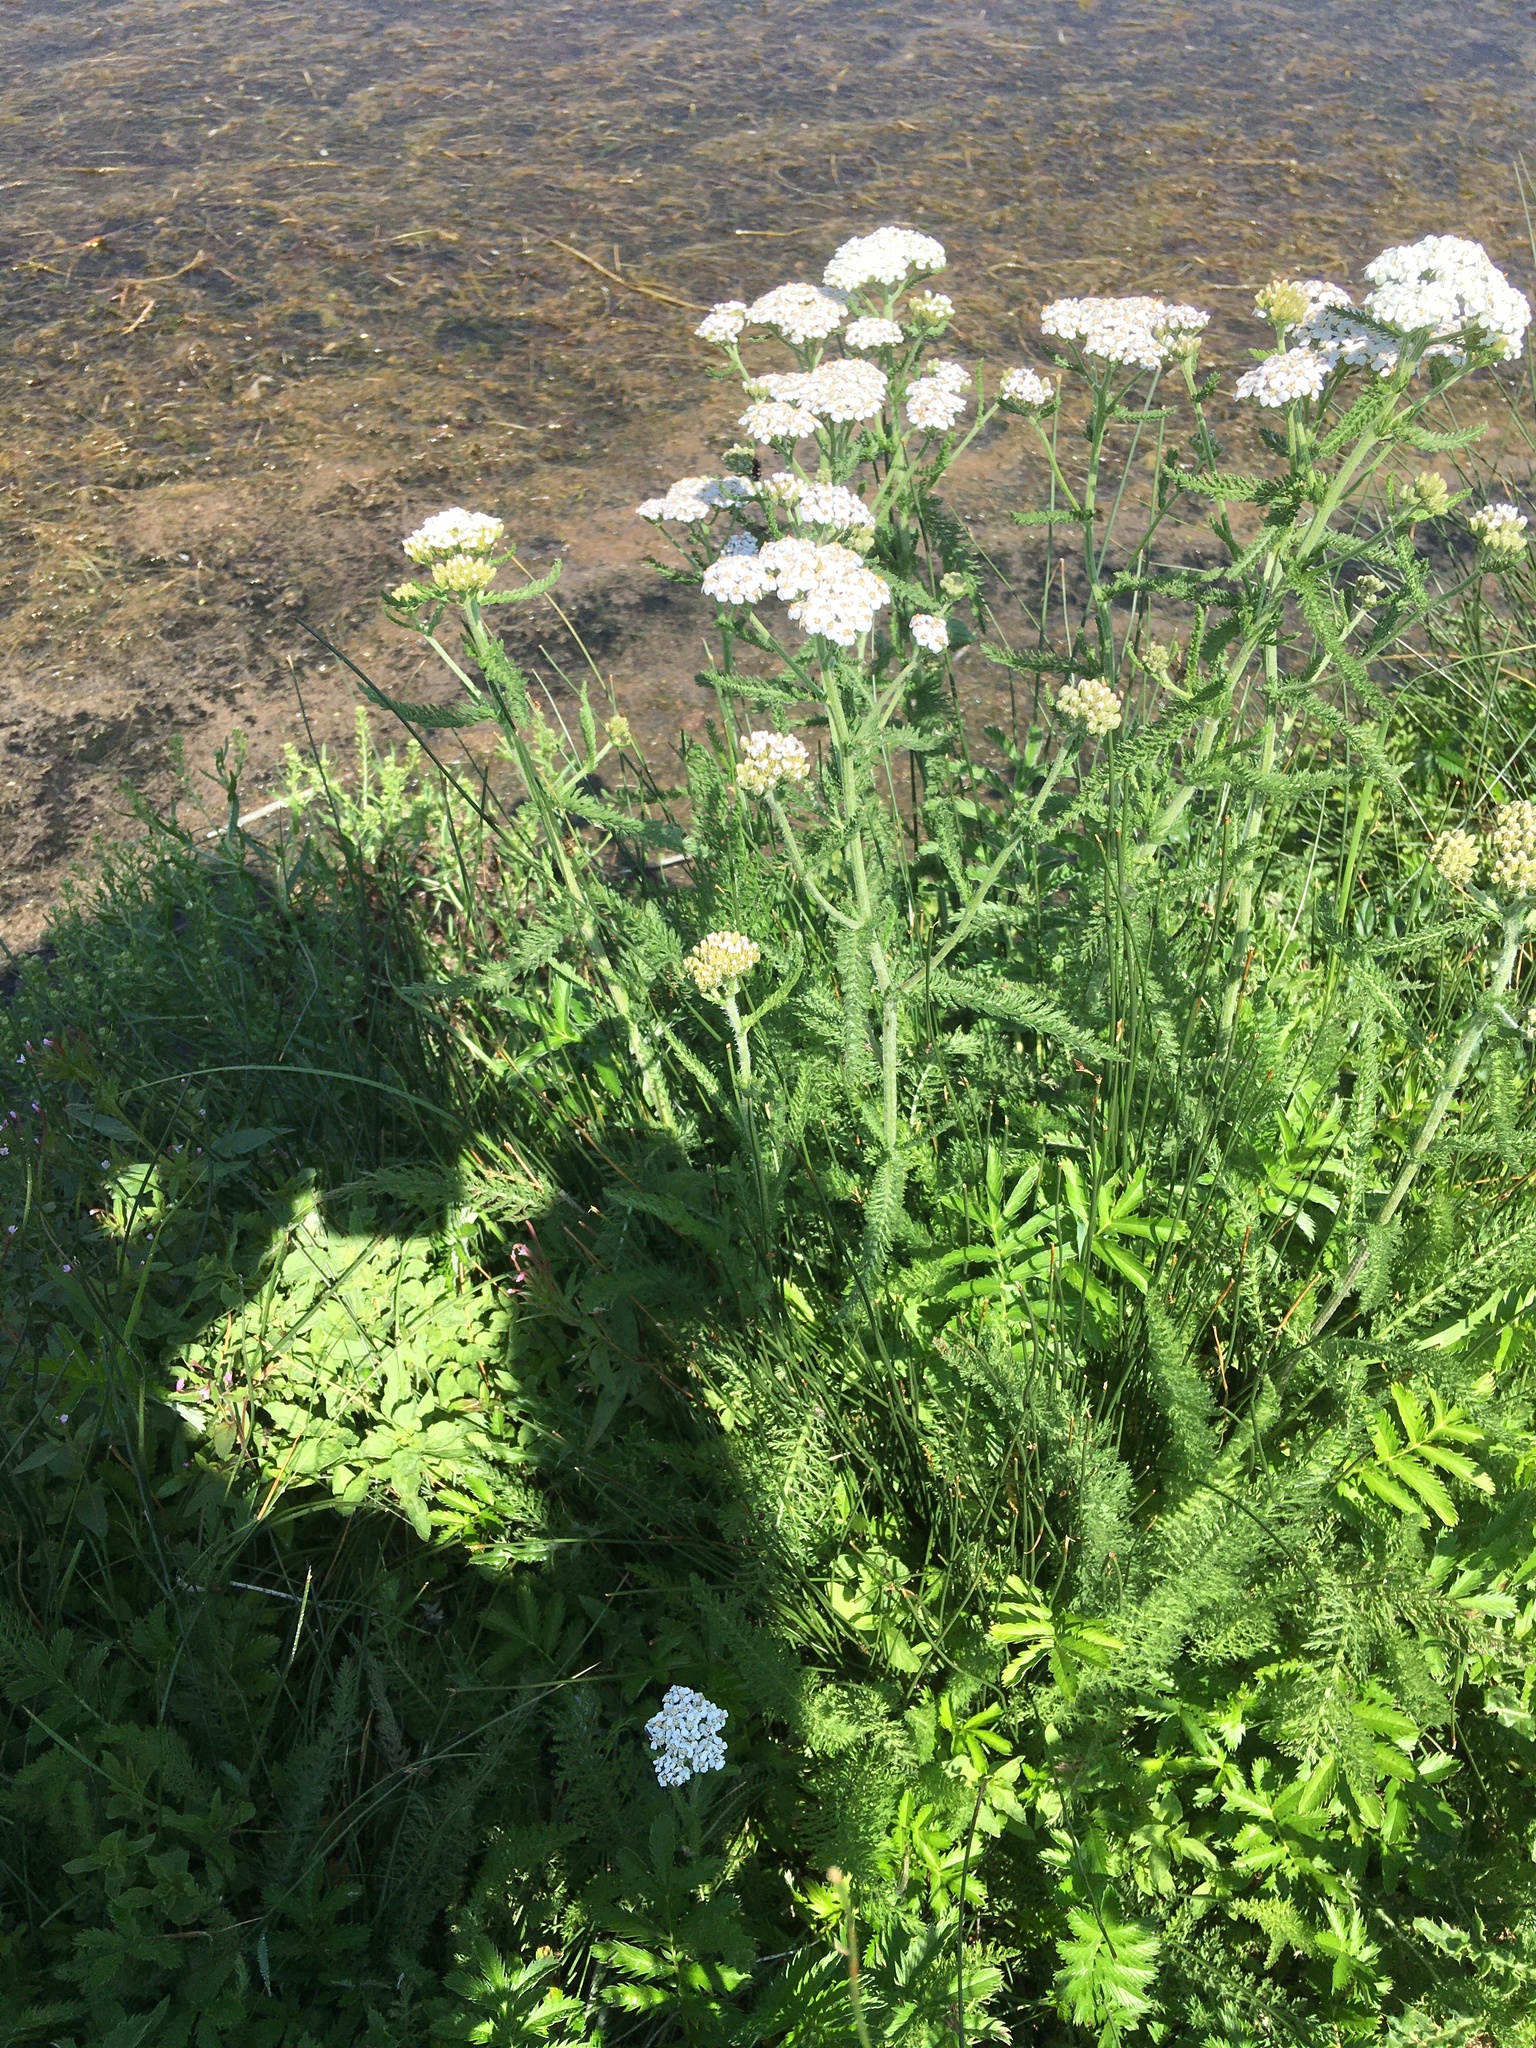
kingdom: Plantae
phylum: Tracheophyta
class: Magnoliopsida
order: Asterales
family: Asteraceae
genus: Achillea
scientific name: Achillea millefolium
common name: Yarrow
